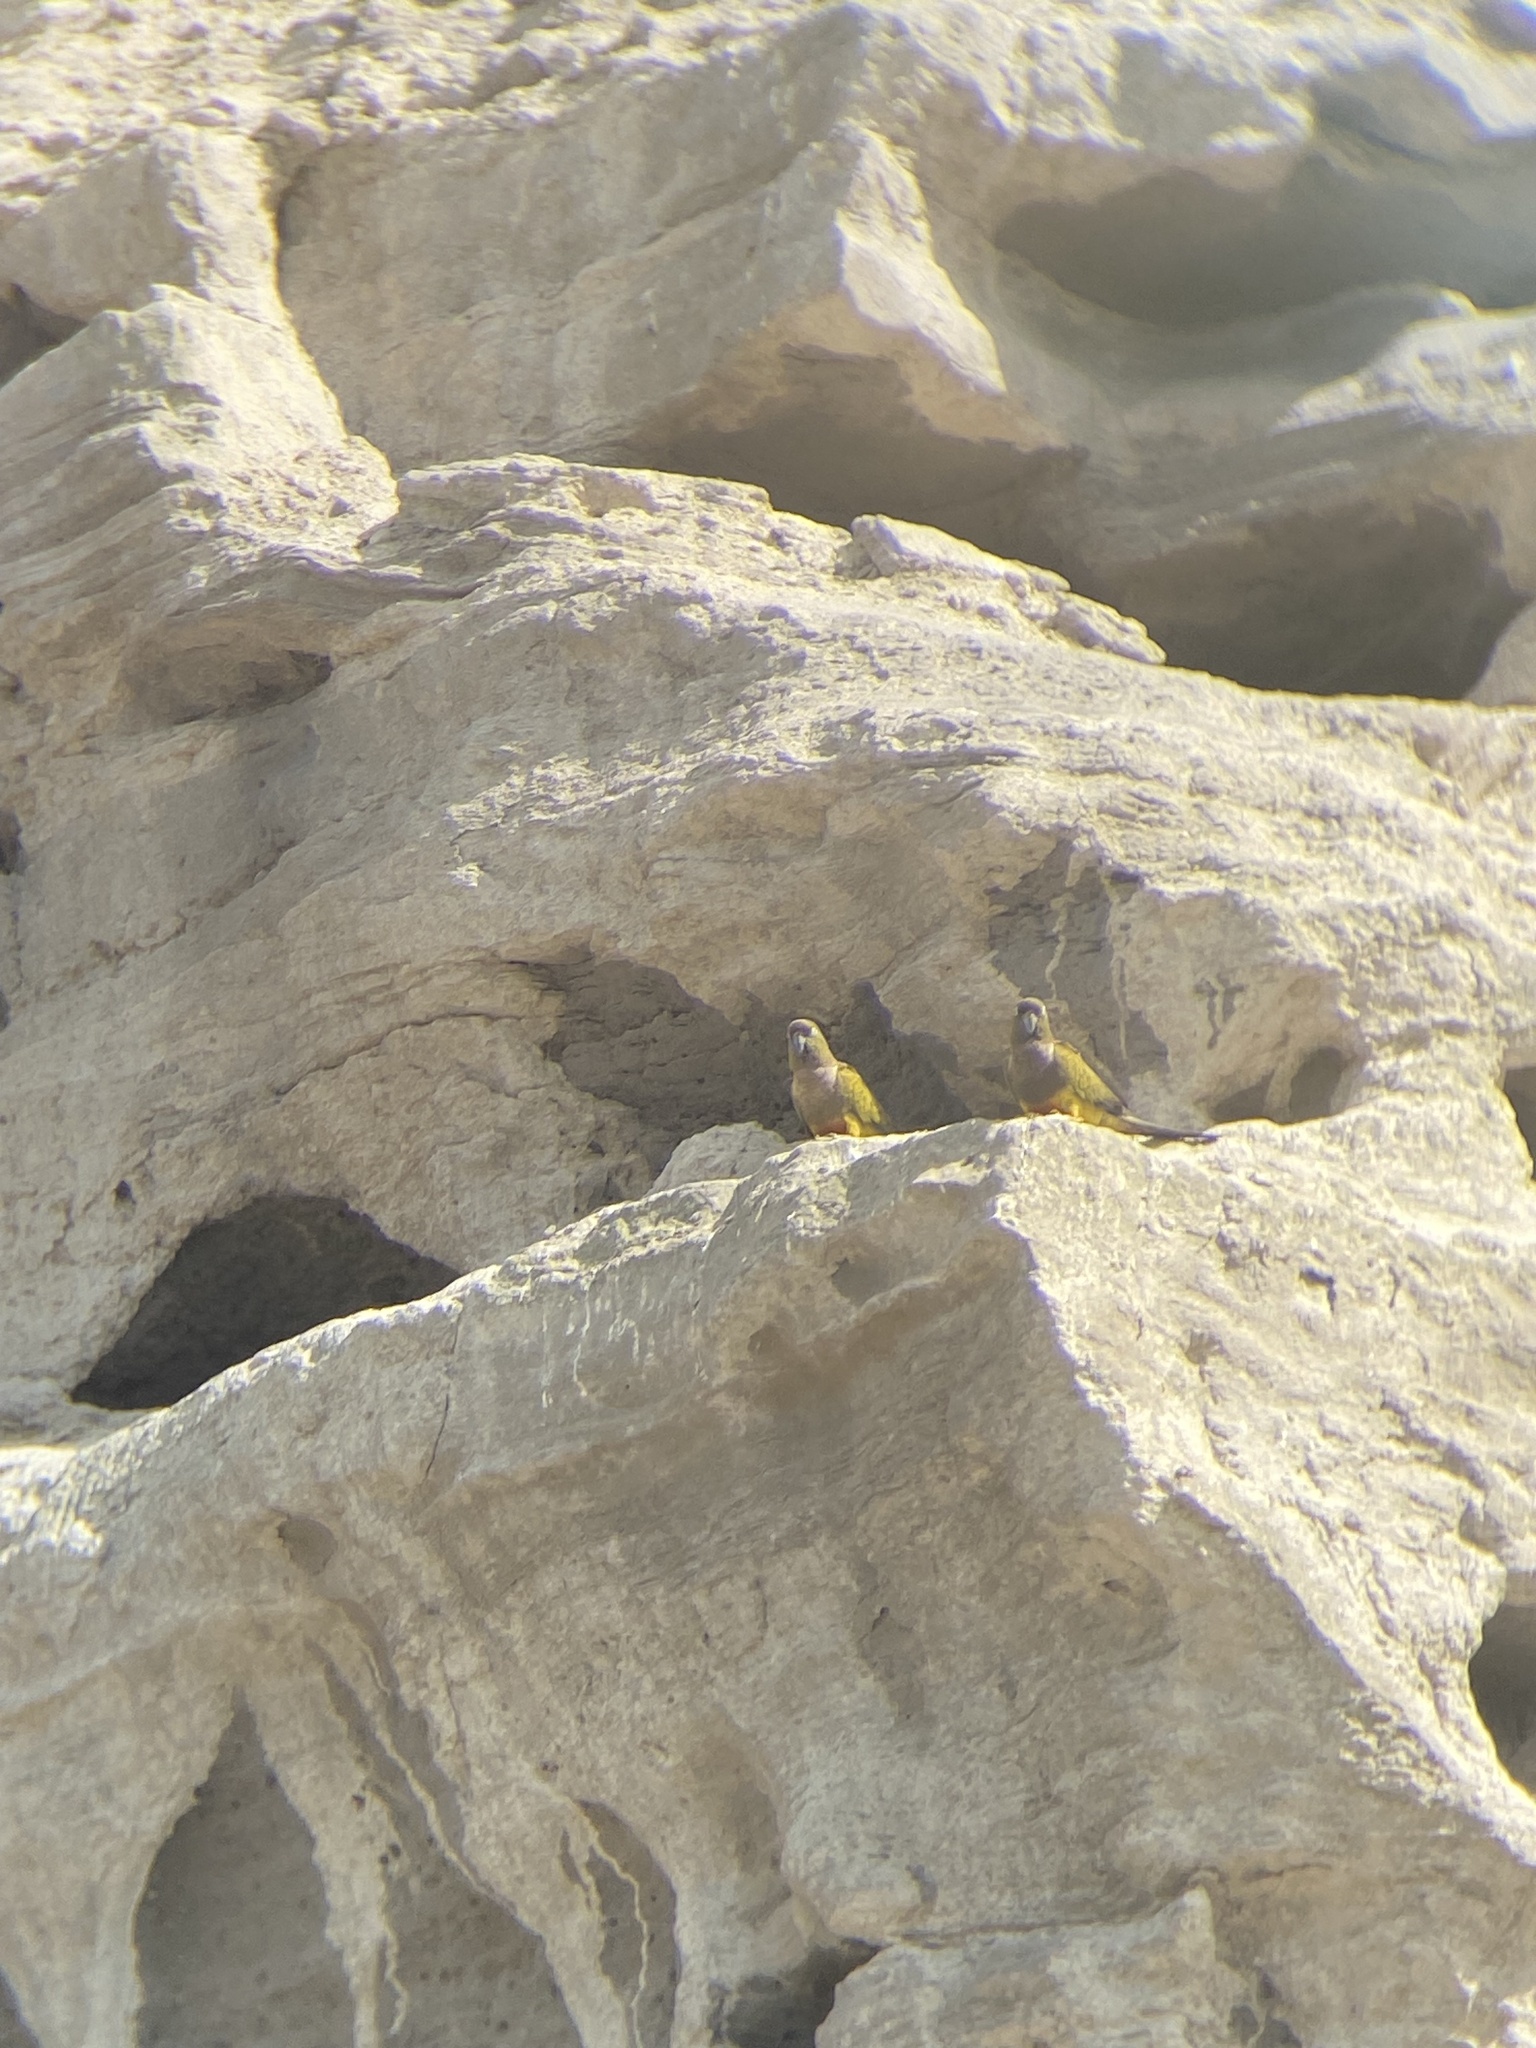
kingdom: Animalia
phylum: Chordata
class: Aves
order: Psittaciformes
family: Psittacidae
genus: Cyanoliseus
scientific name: Cyanoliseus patagonus
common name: Burrowing parrot
